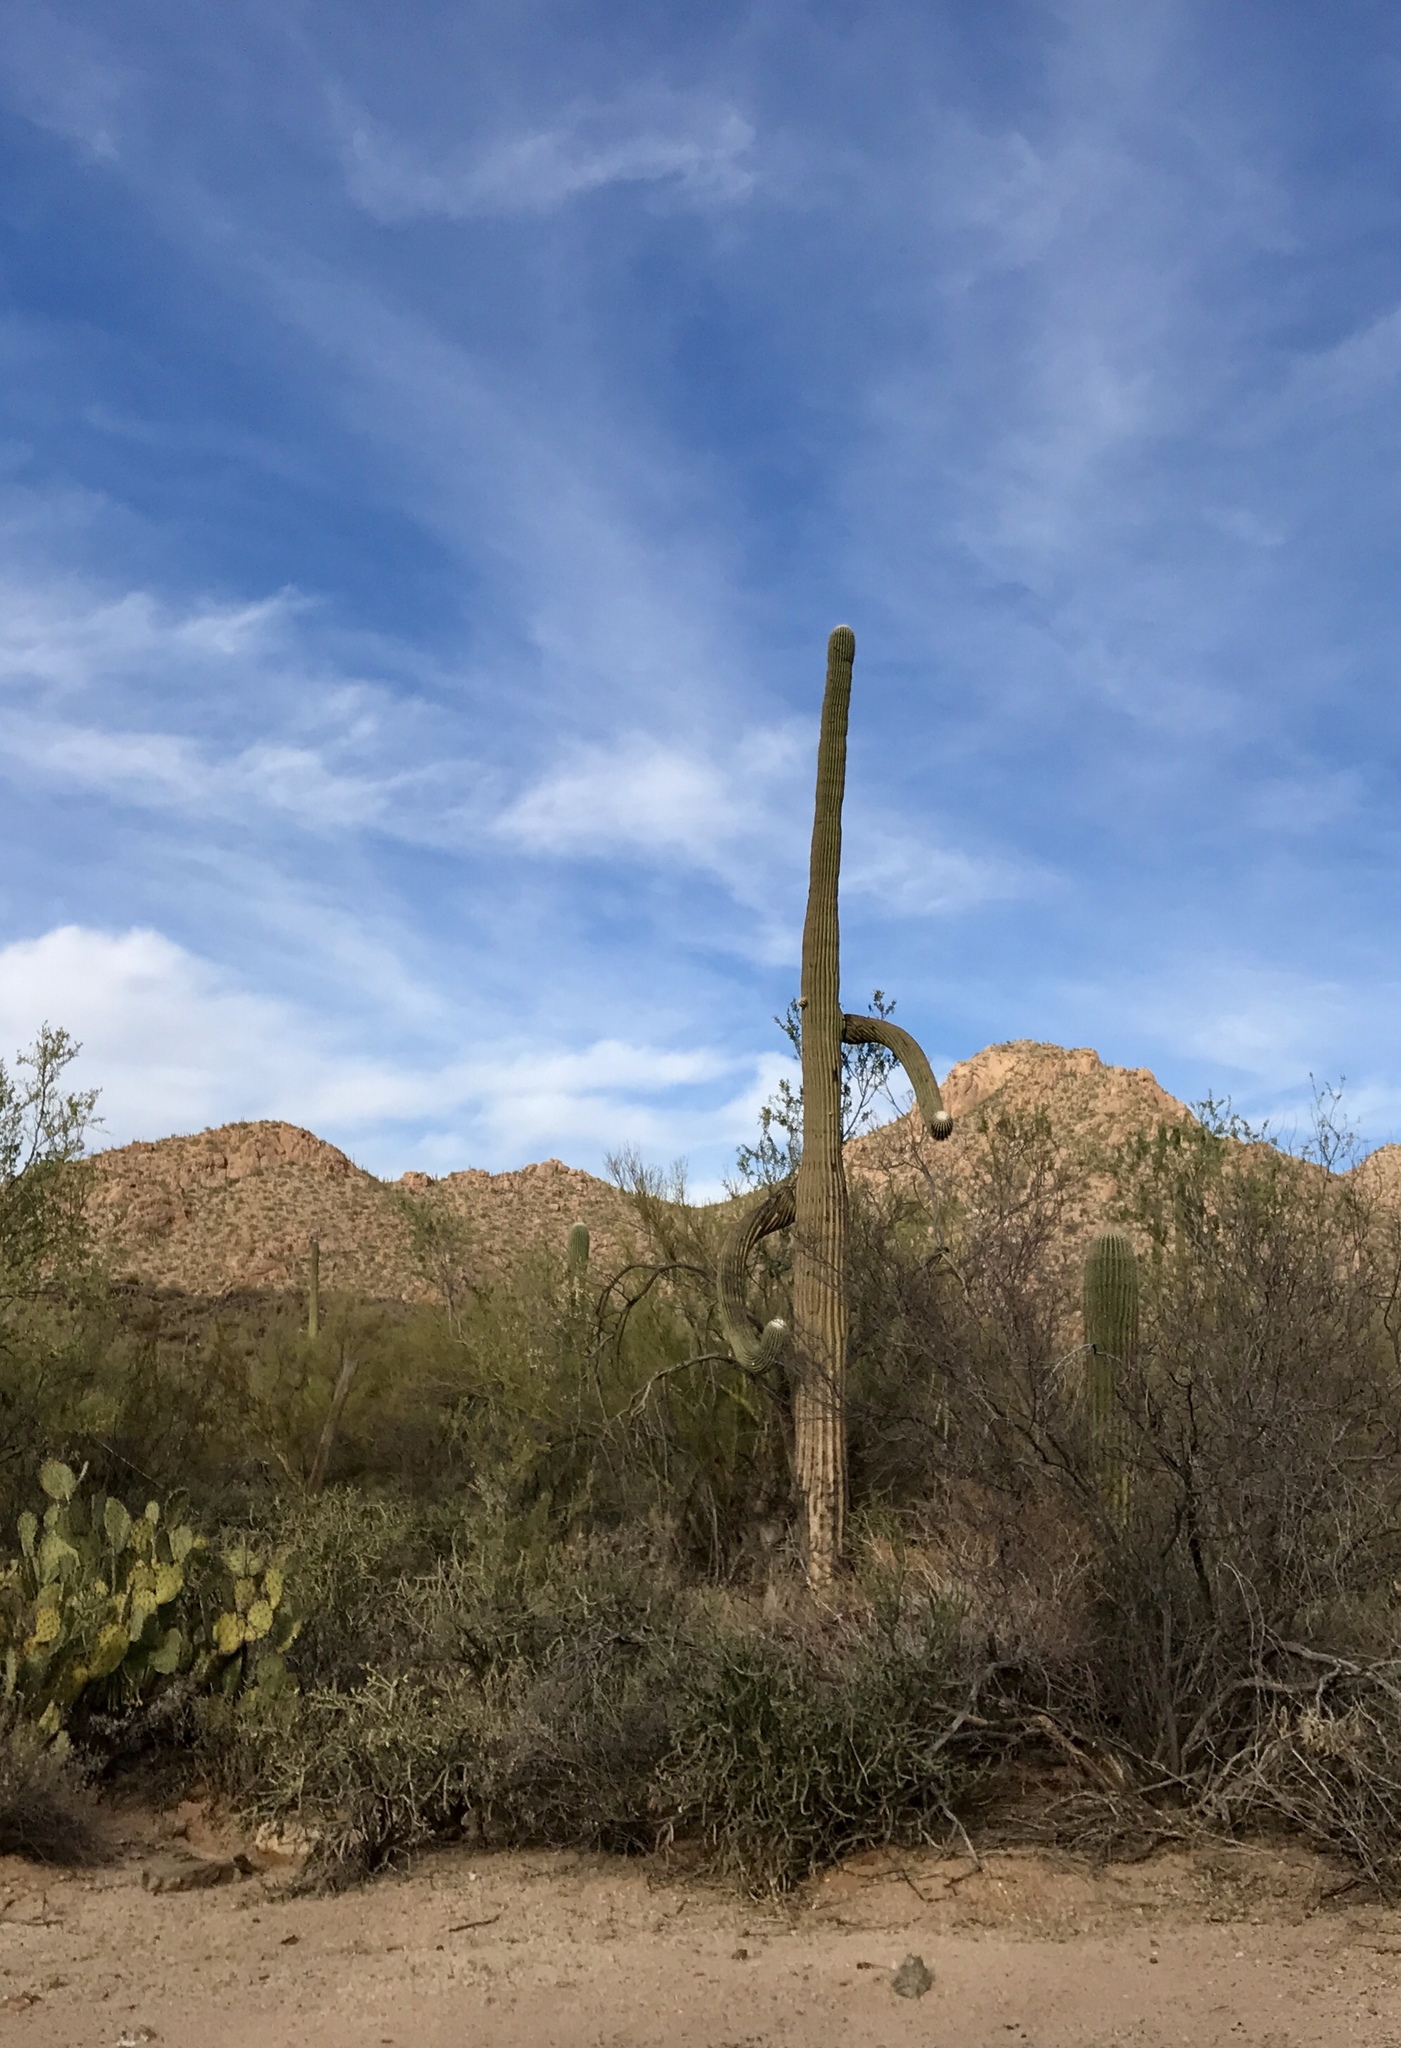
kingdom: Plantae
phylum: Tracheophyta
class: Magnoliopsida
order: Caryophyllales
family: Cactaceae
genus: Carnegiea
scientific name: Carnegiea gigantea
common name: Saguaro
